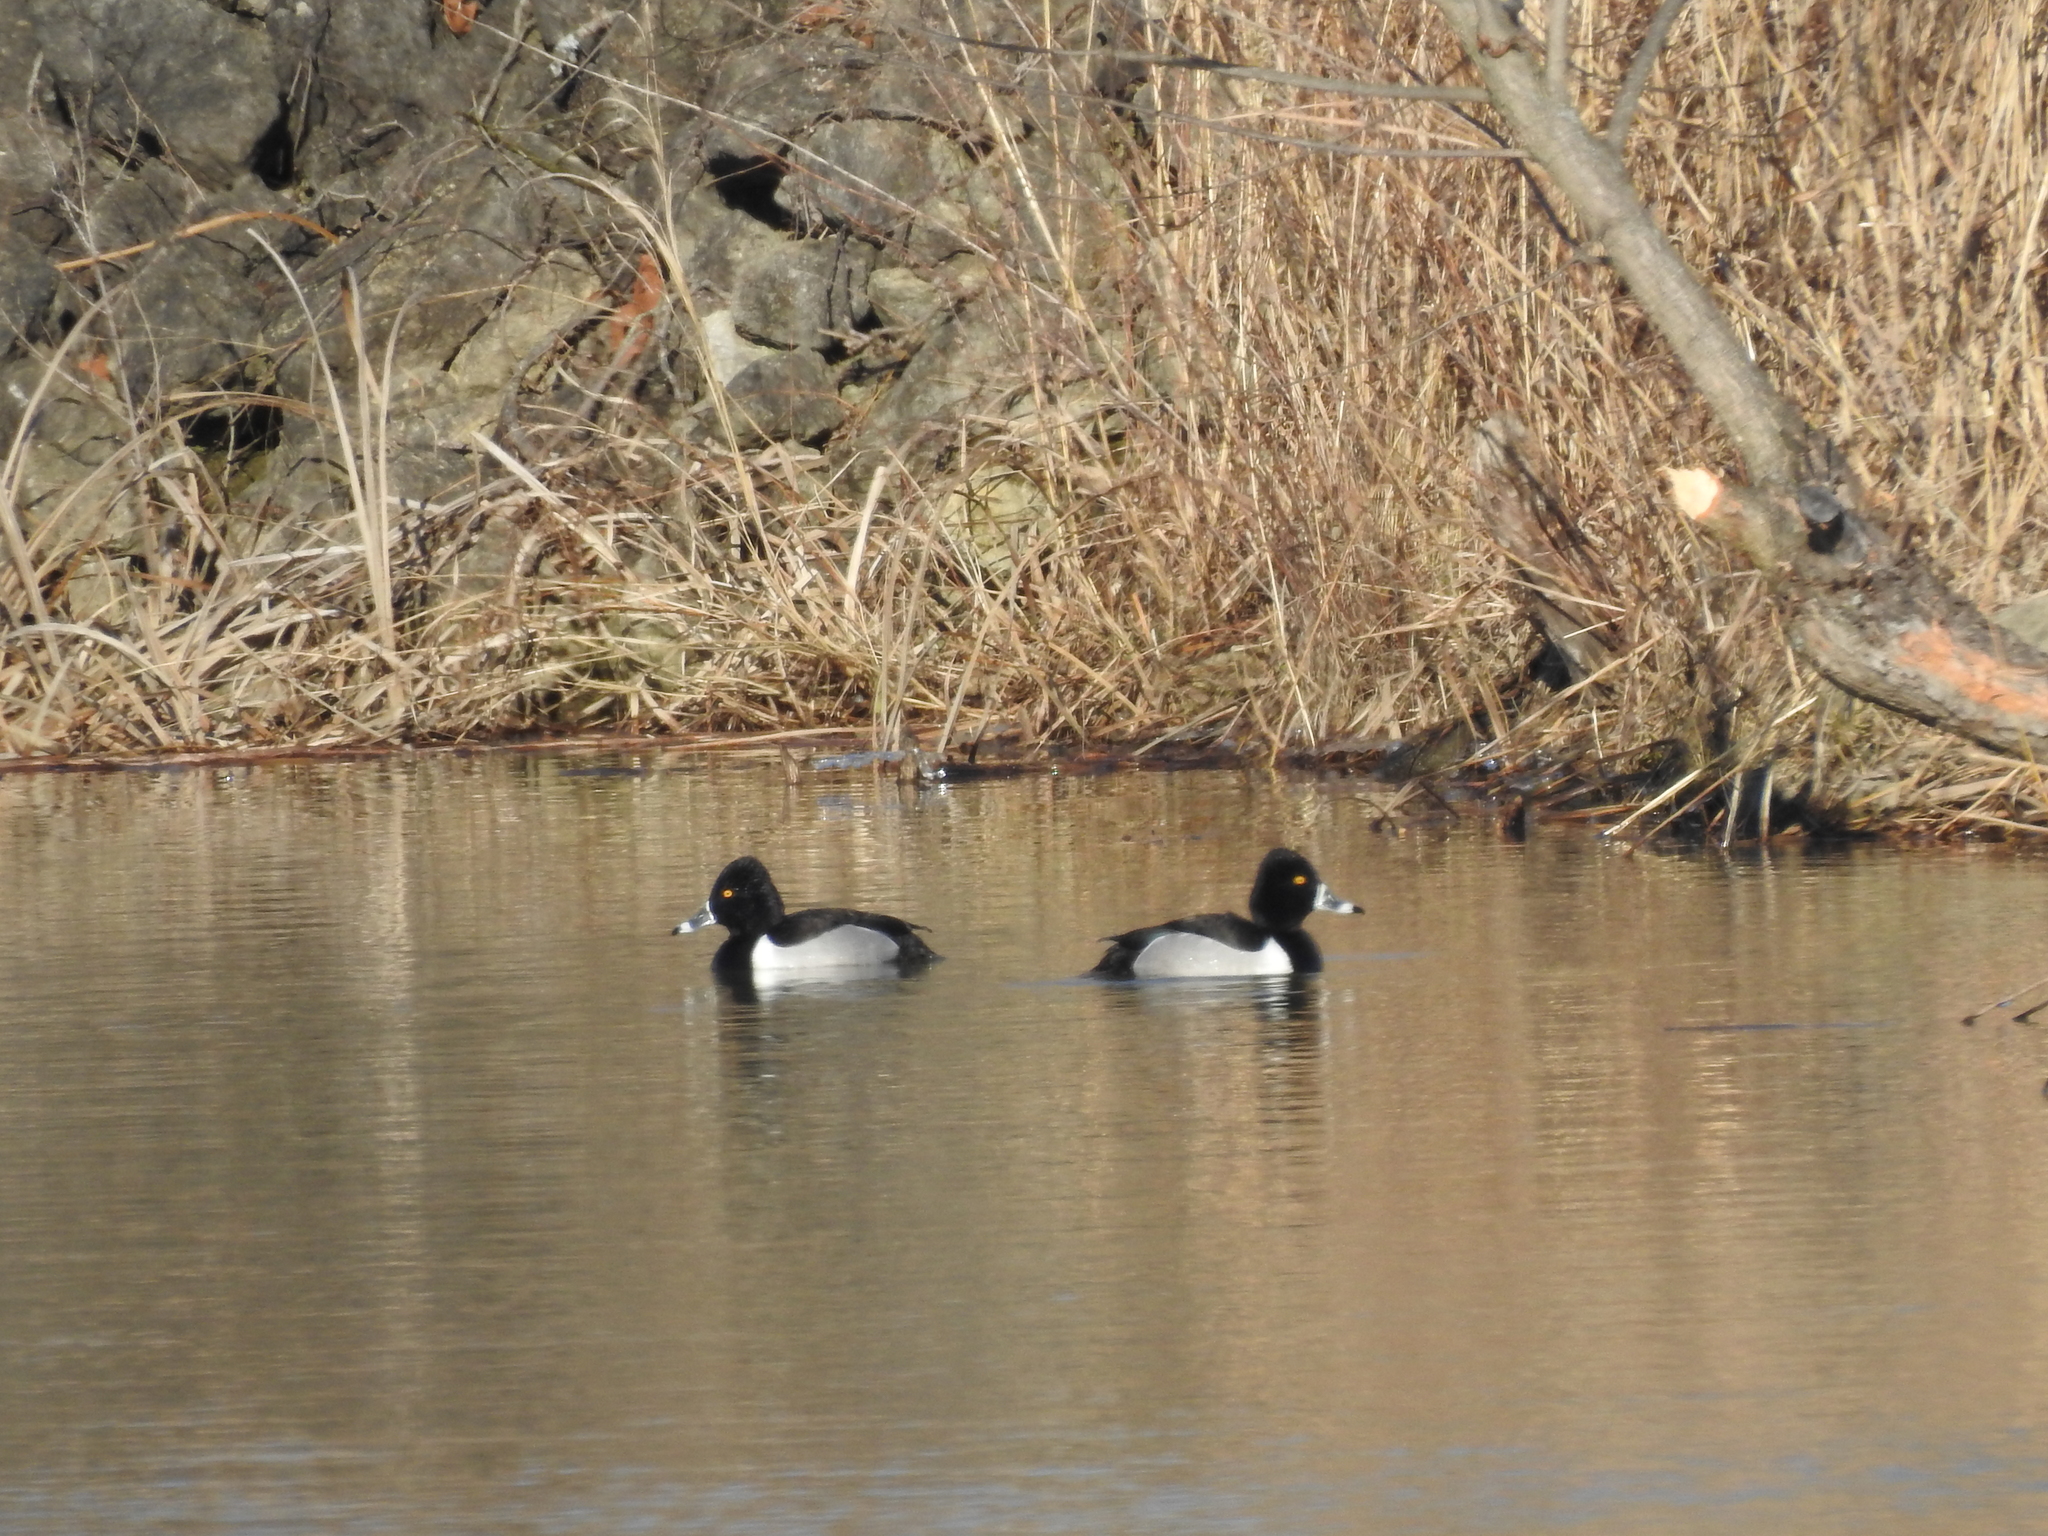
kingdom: Animalia
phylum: Chordata
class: Aves
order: Anseriformes
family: Anatidae
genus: Aythya
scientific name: Aythya collaris
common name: Ring-necked duck
